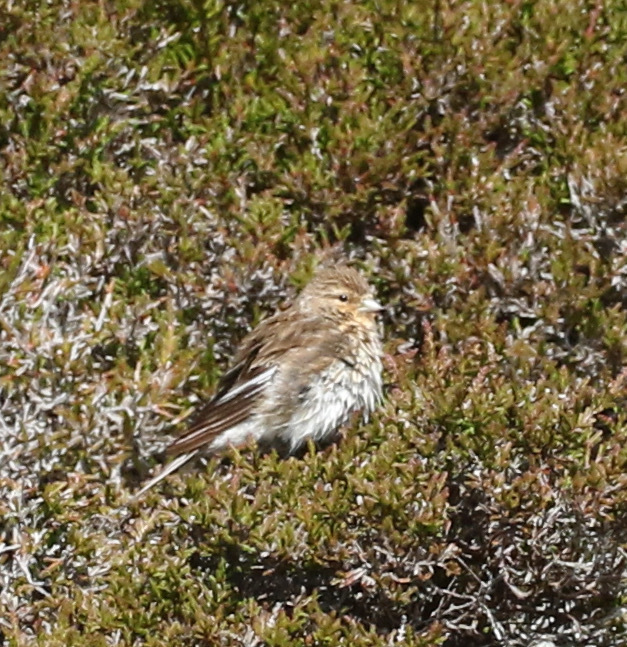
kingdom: Animalia
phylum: Chordata
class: Aves
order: Passeriformes
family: Fringillidae
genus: Linaria
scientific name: Linaria flavirostris
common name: Twite
